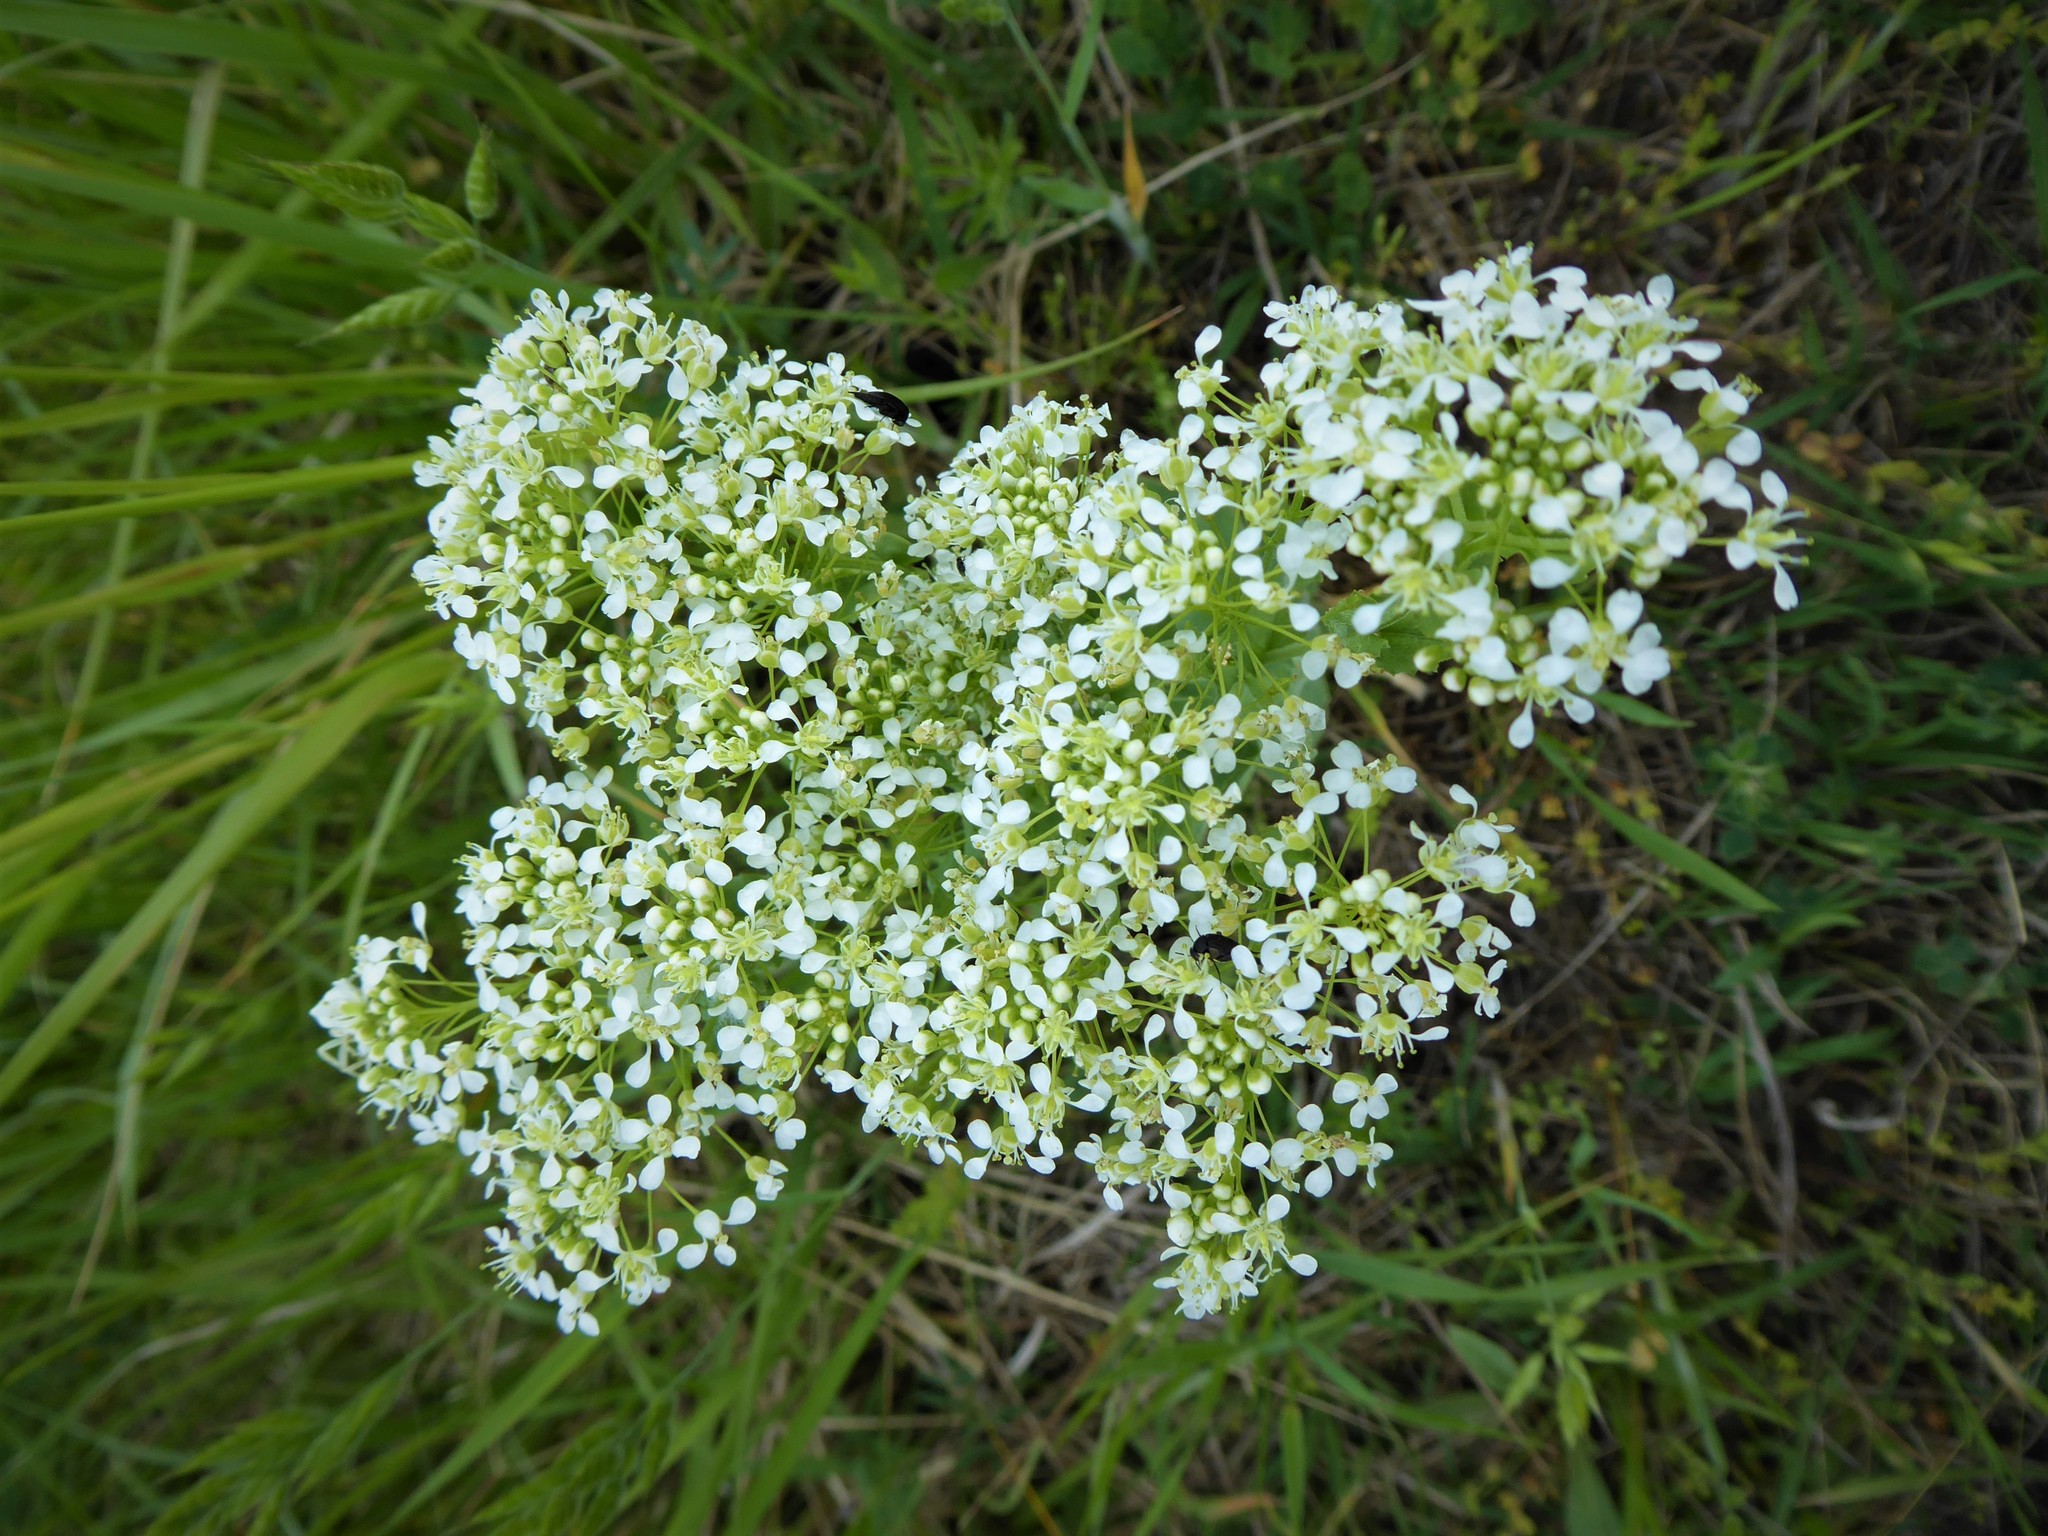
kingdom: Plantae
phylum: Tracheophyta
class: Magnoliopsida
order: Brassicales
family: Brassicaceae
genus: Lepidium
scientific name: Lepidium draba
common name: Hoary cress
